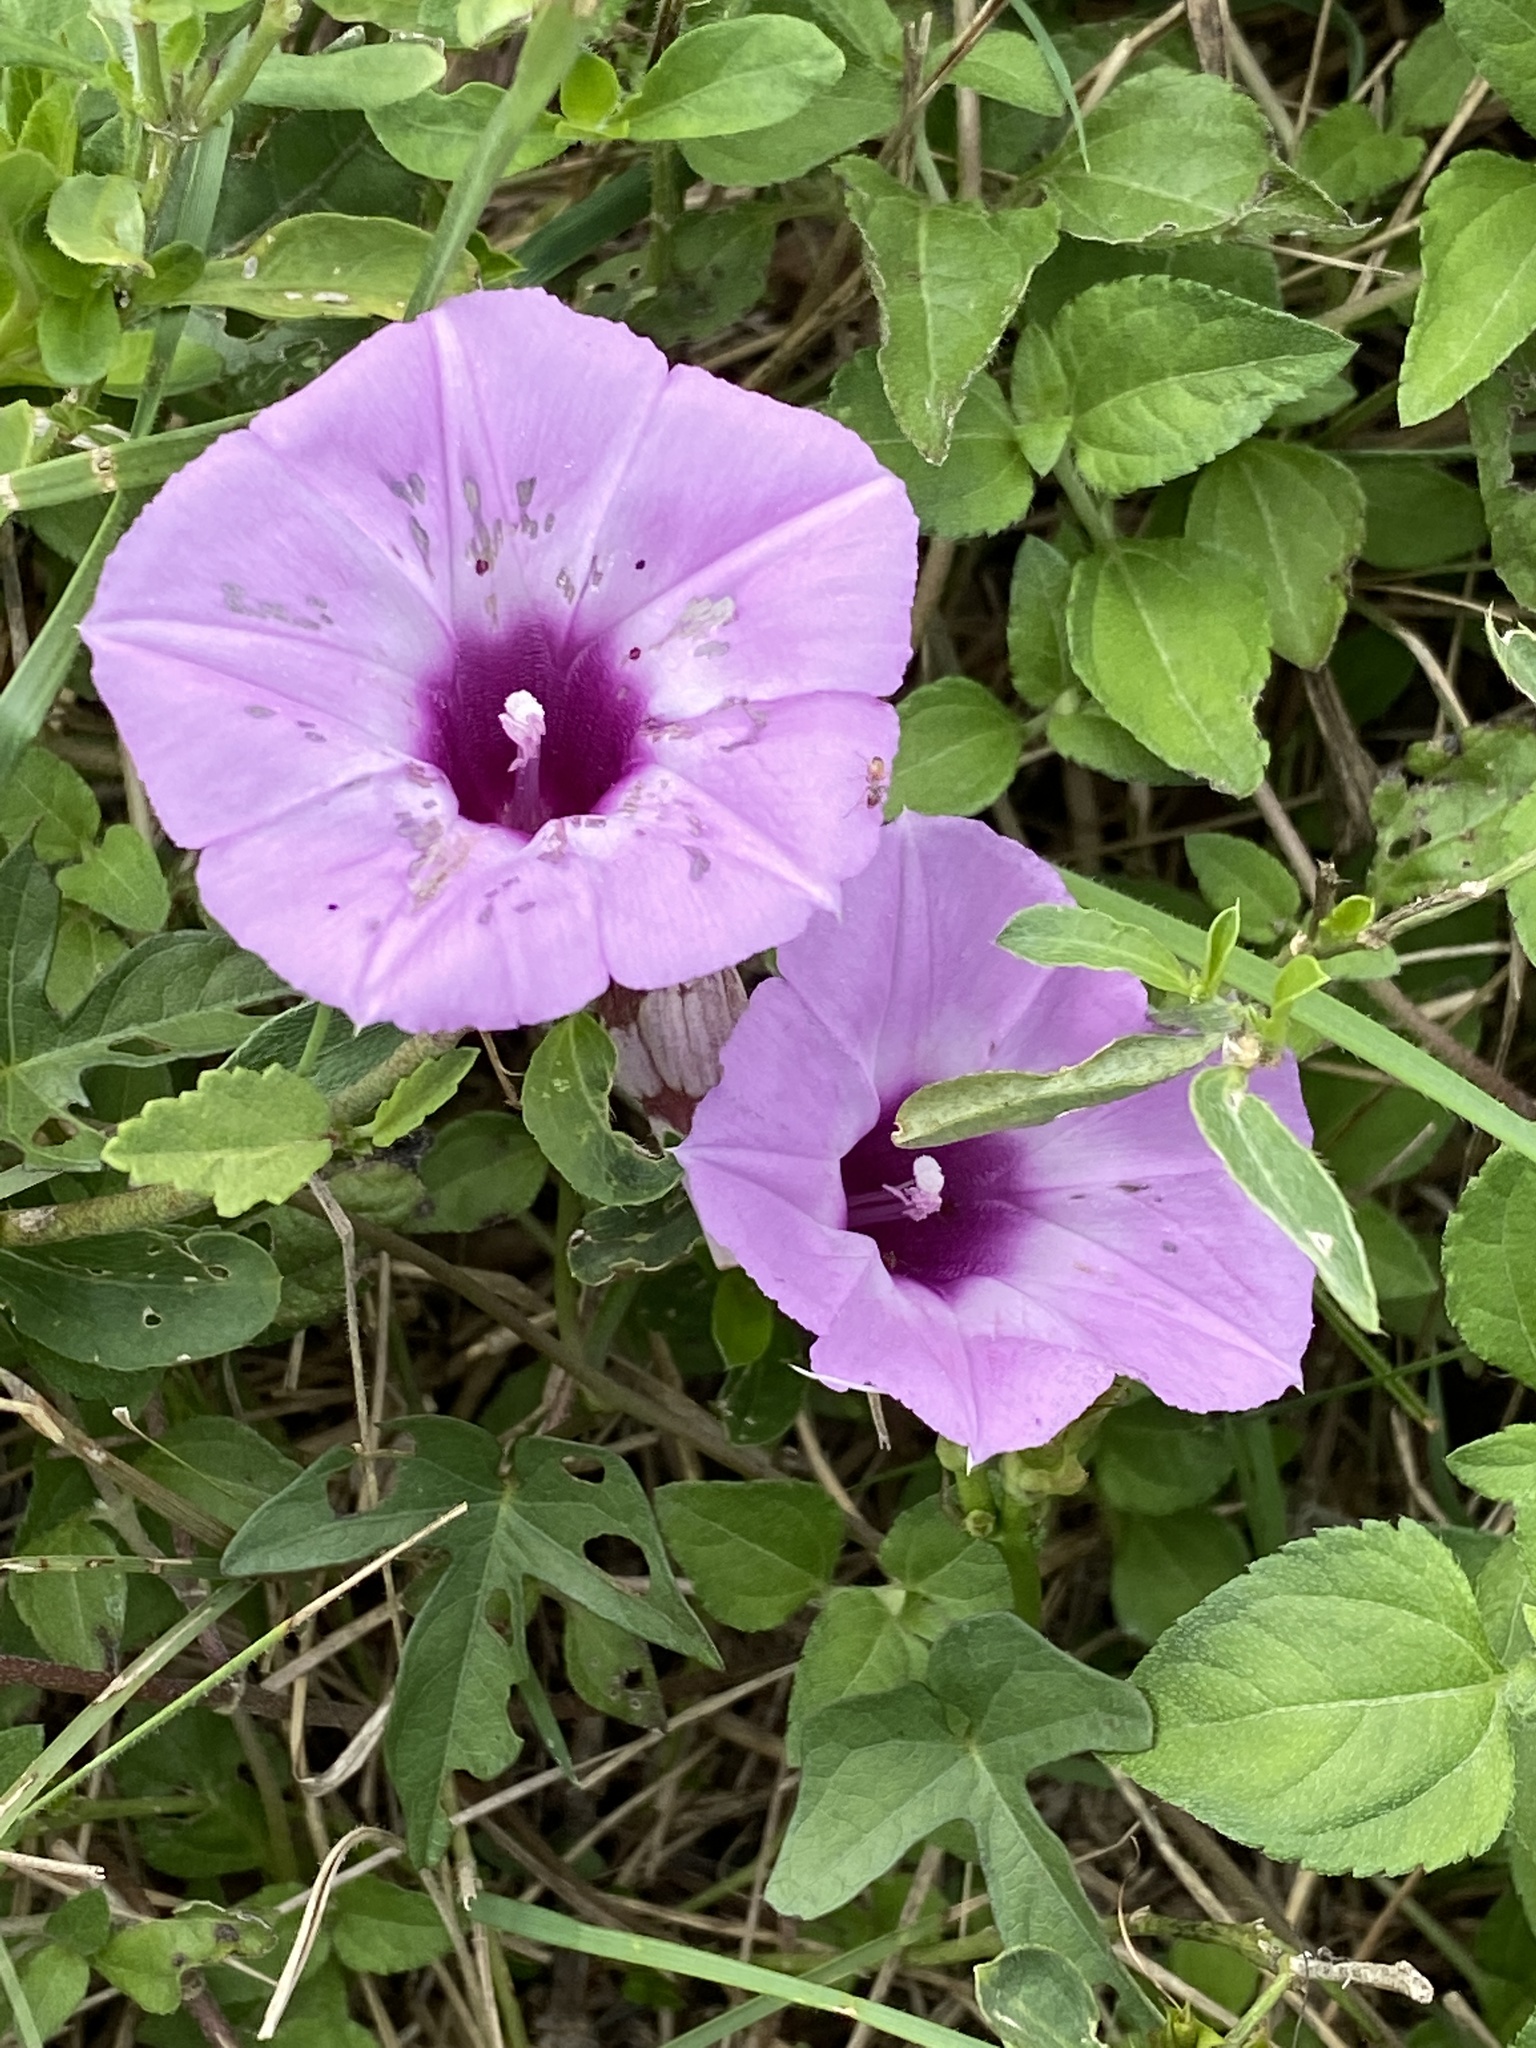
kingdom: Plantae
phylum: Tracheophyta
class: Magnoliopsida
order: Solanales
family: Convolvulaceae
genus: Ipomoea
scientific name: Ipomoea cordatotriloba
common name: Cotton morning glory
